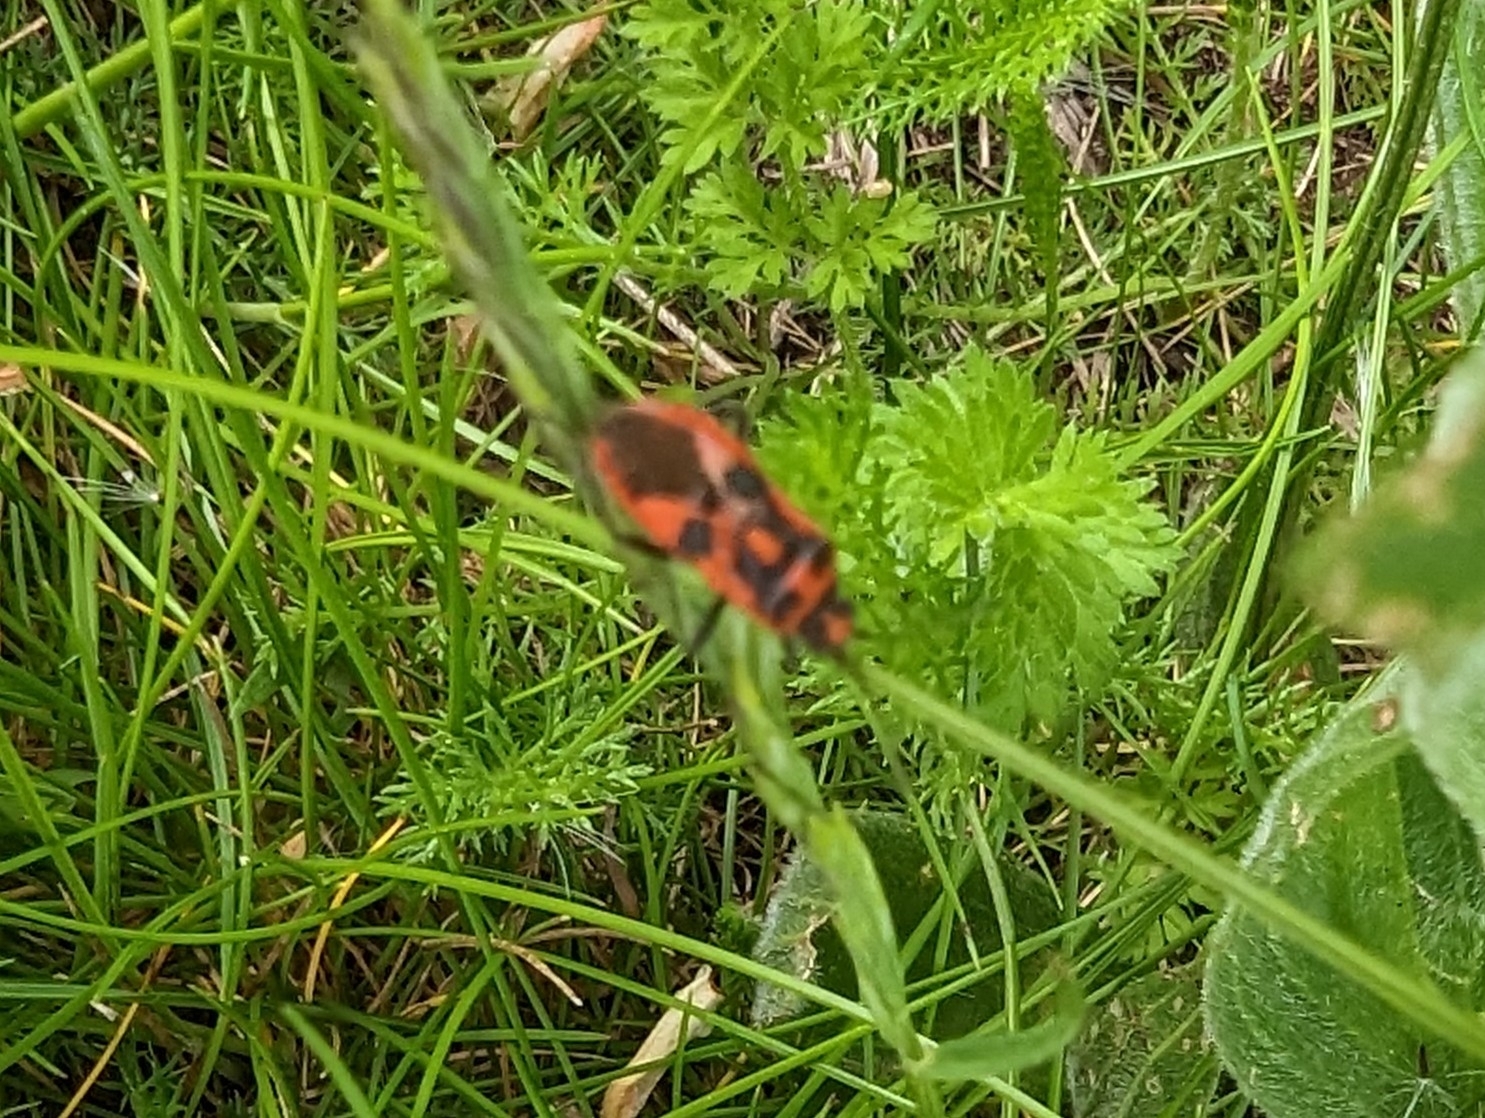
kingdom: Animalia
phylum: Arthropoda
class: Insecta
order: Hemiptera
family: Rhopalidae
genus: Corizus
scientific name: Corizus hyoscyami
